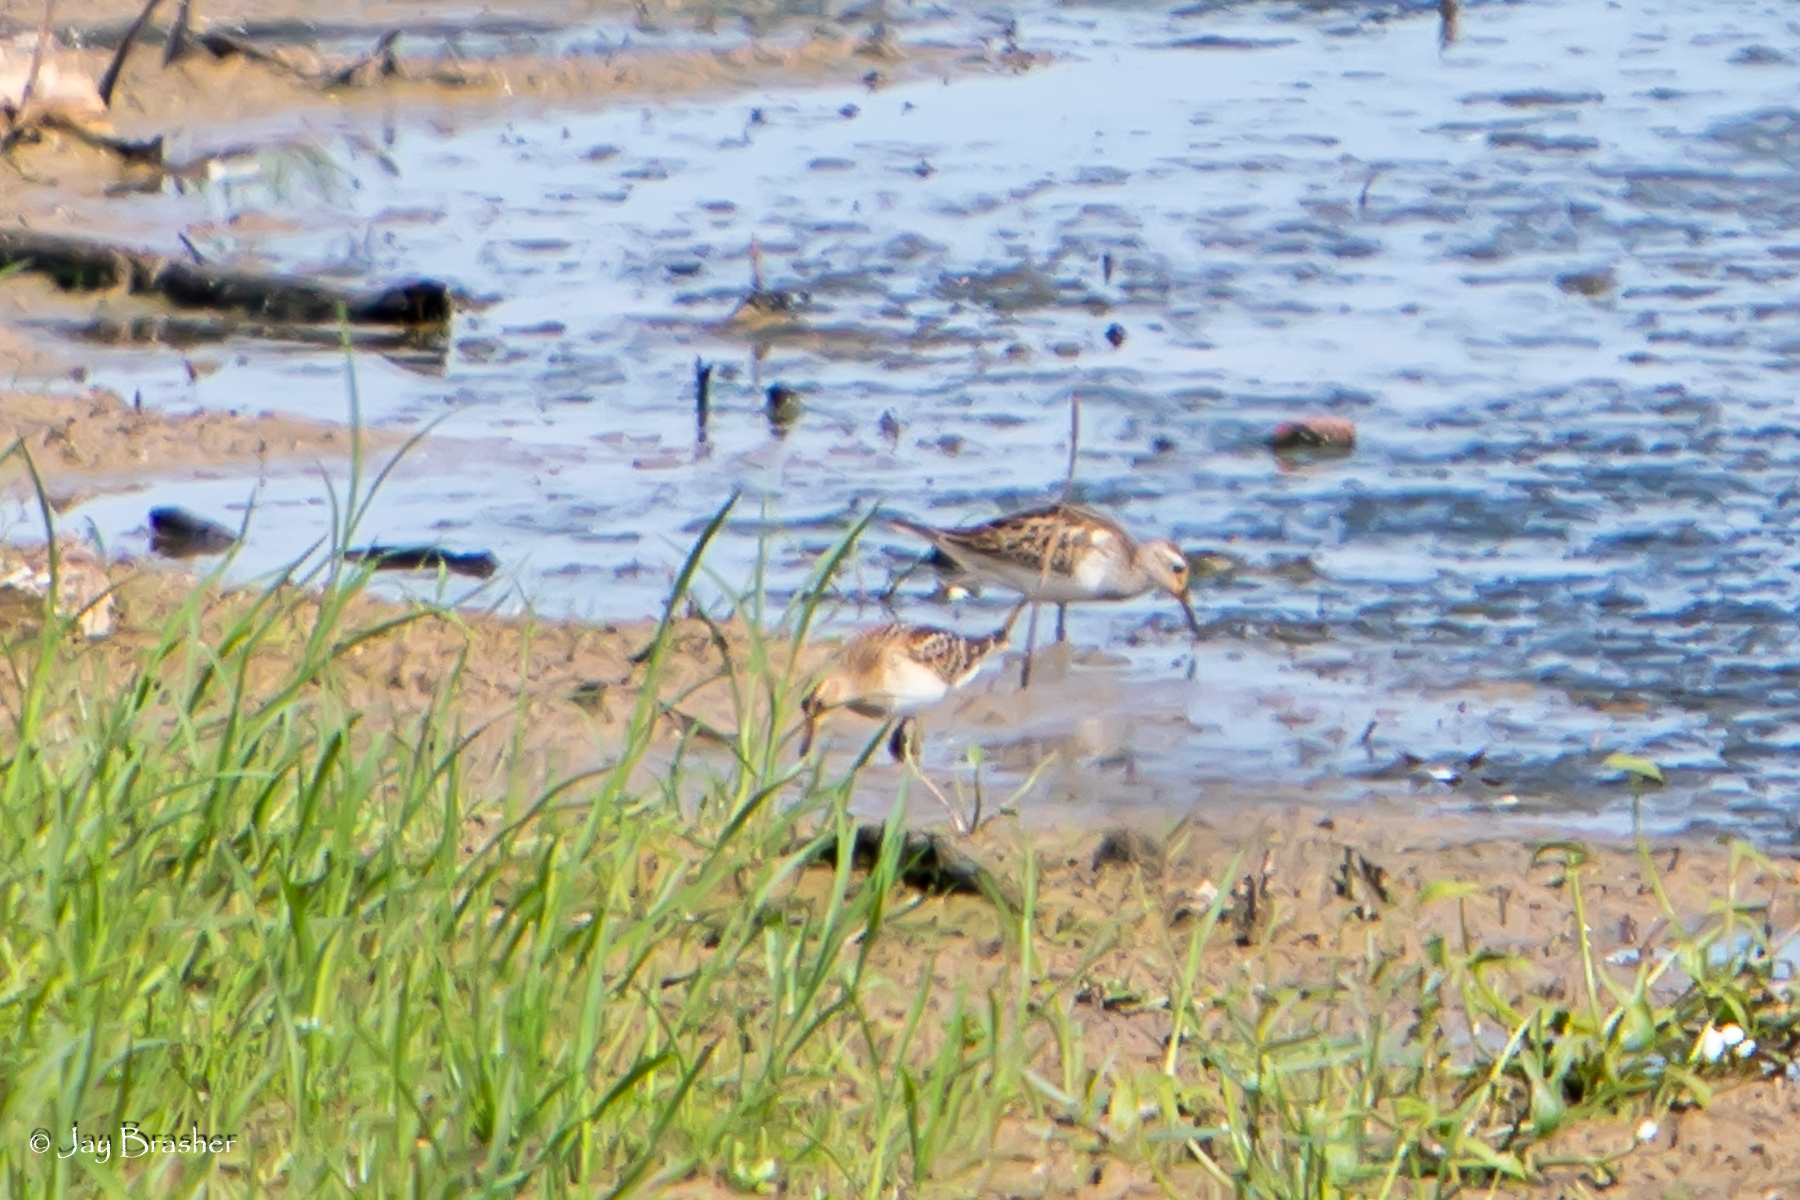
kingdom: Animalia
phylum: Chordata
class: Aves
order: Charadriiformes
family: Scolopacidae
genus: Calidris
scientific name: Calidris melanotos
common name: Pectoral sandpiper
